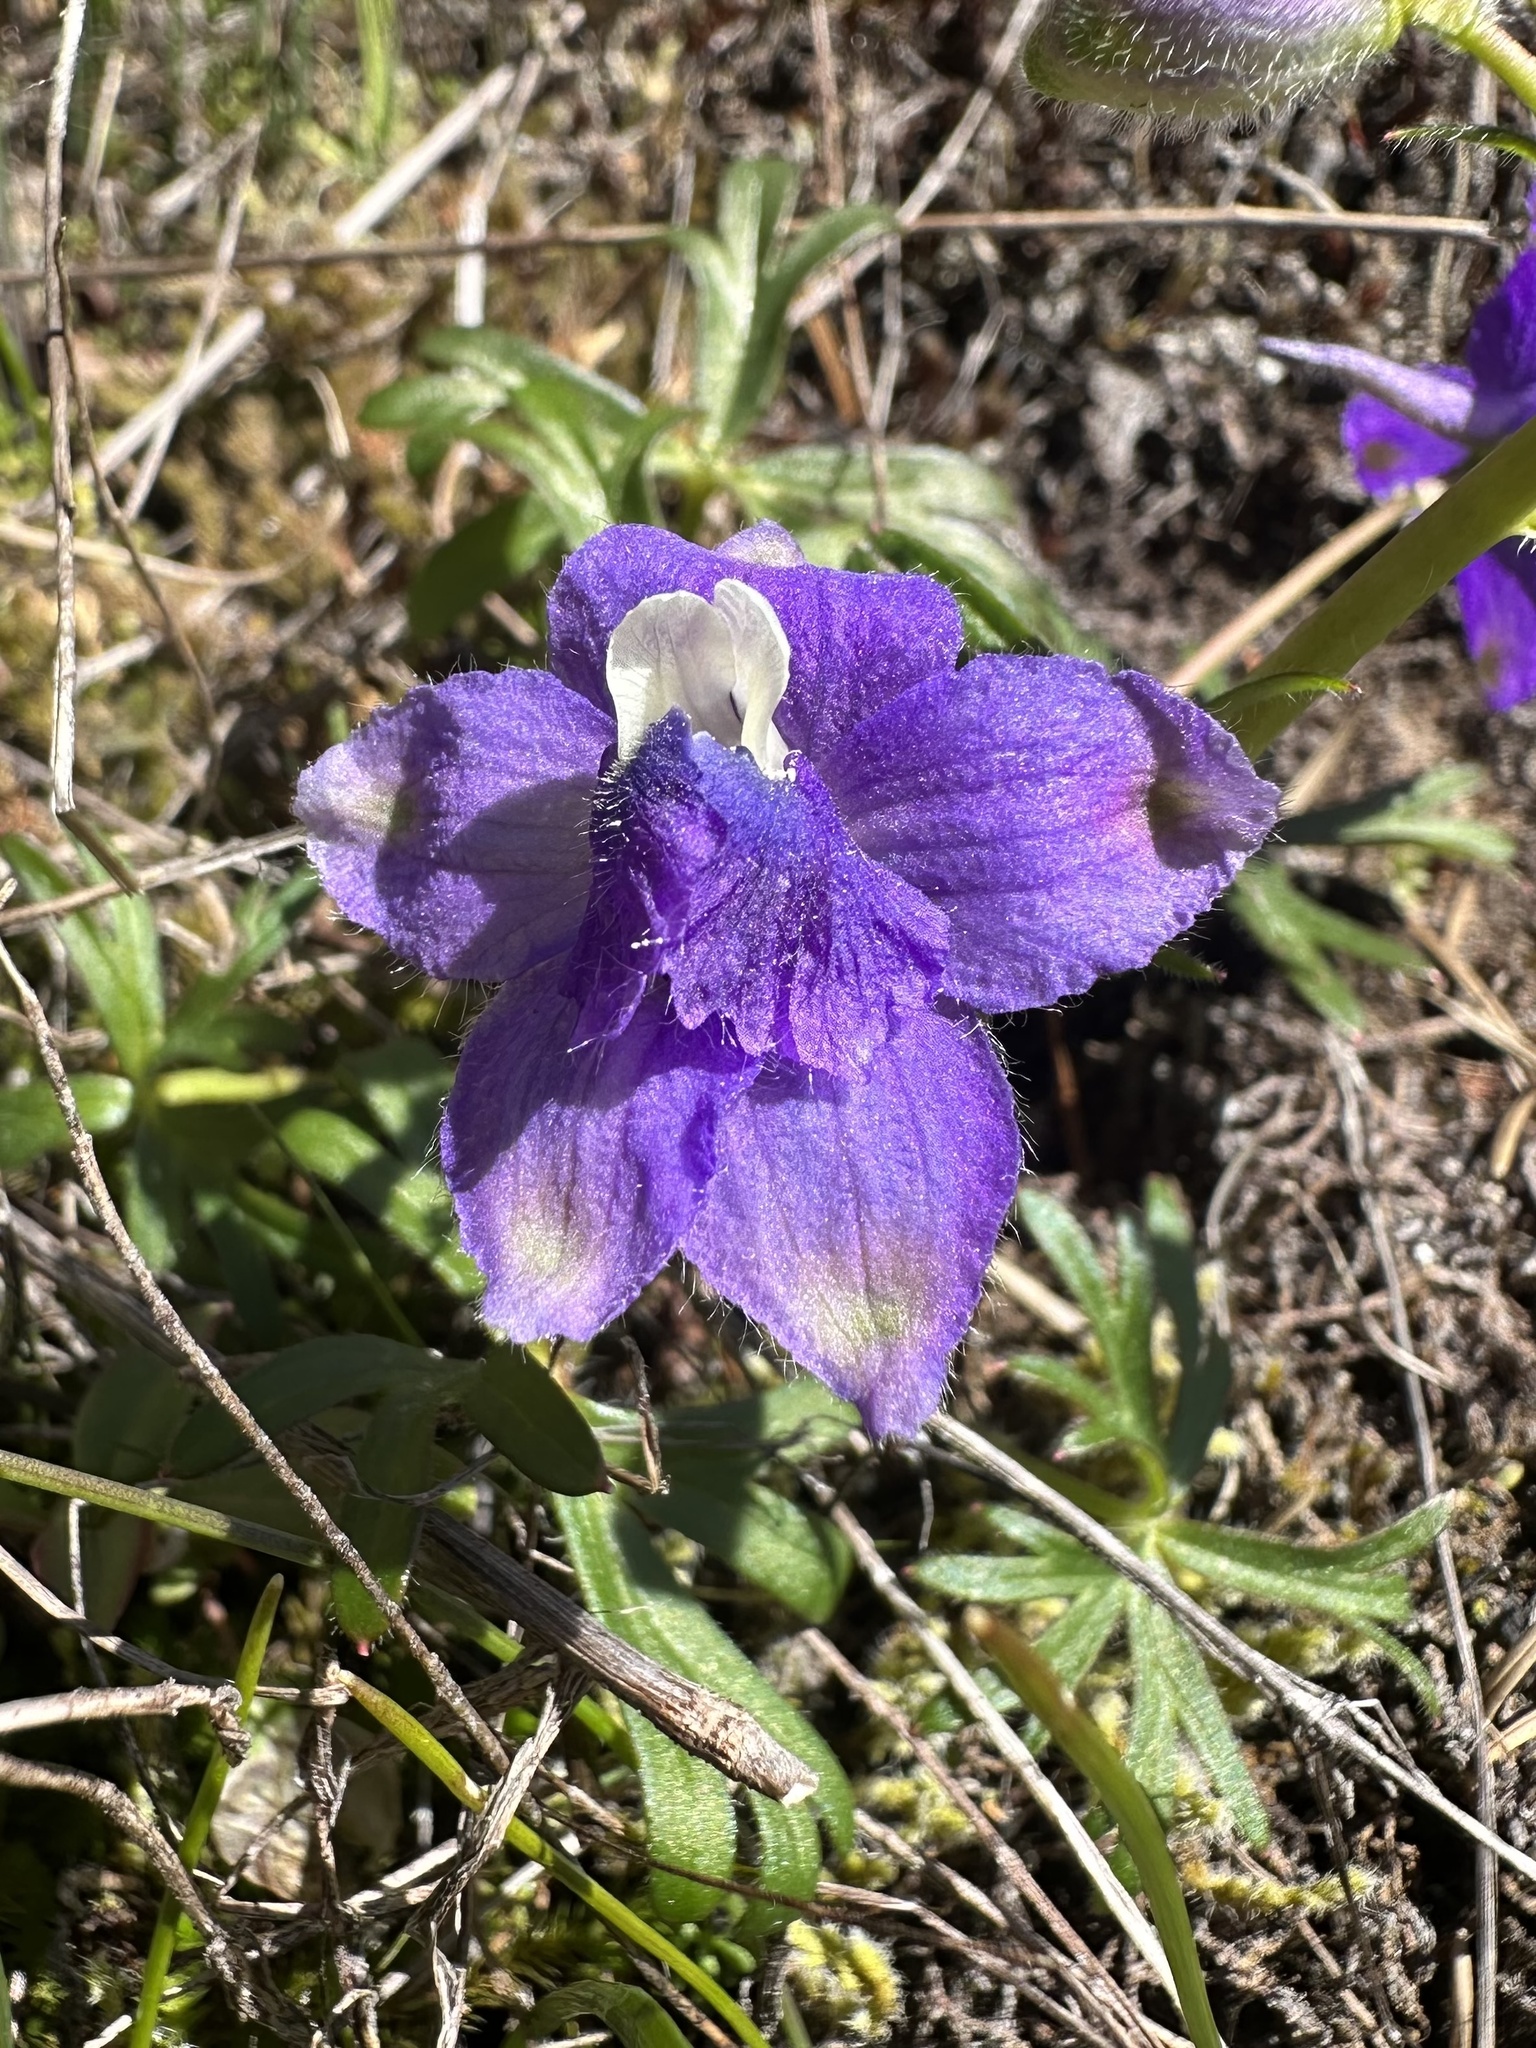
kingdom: Plantae
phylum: Tracheophyta
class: Magnoliopsida
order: Ranunculales
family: Ranunculaceae
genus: Delphinium
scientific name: Delphinium menziesii
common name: Menzies's larkspur
